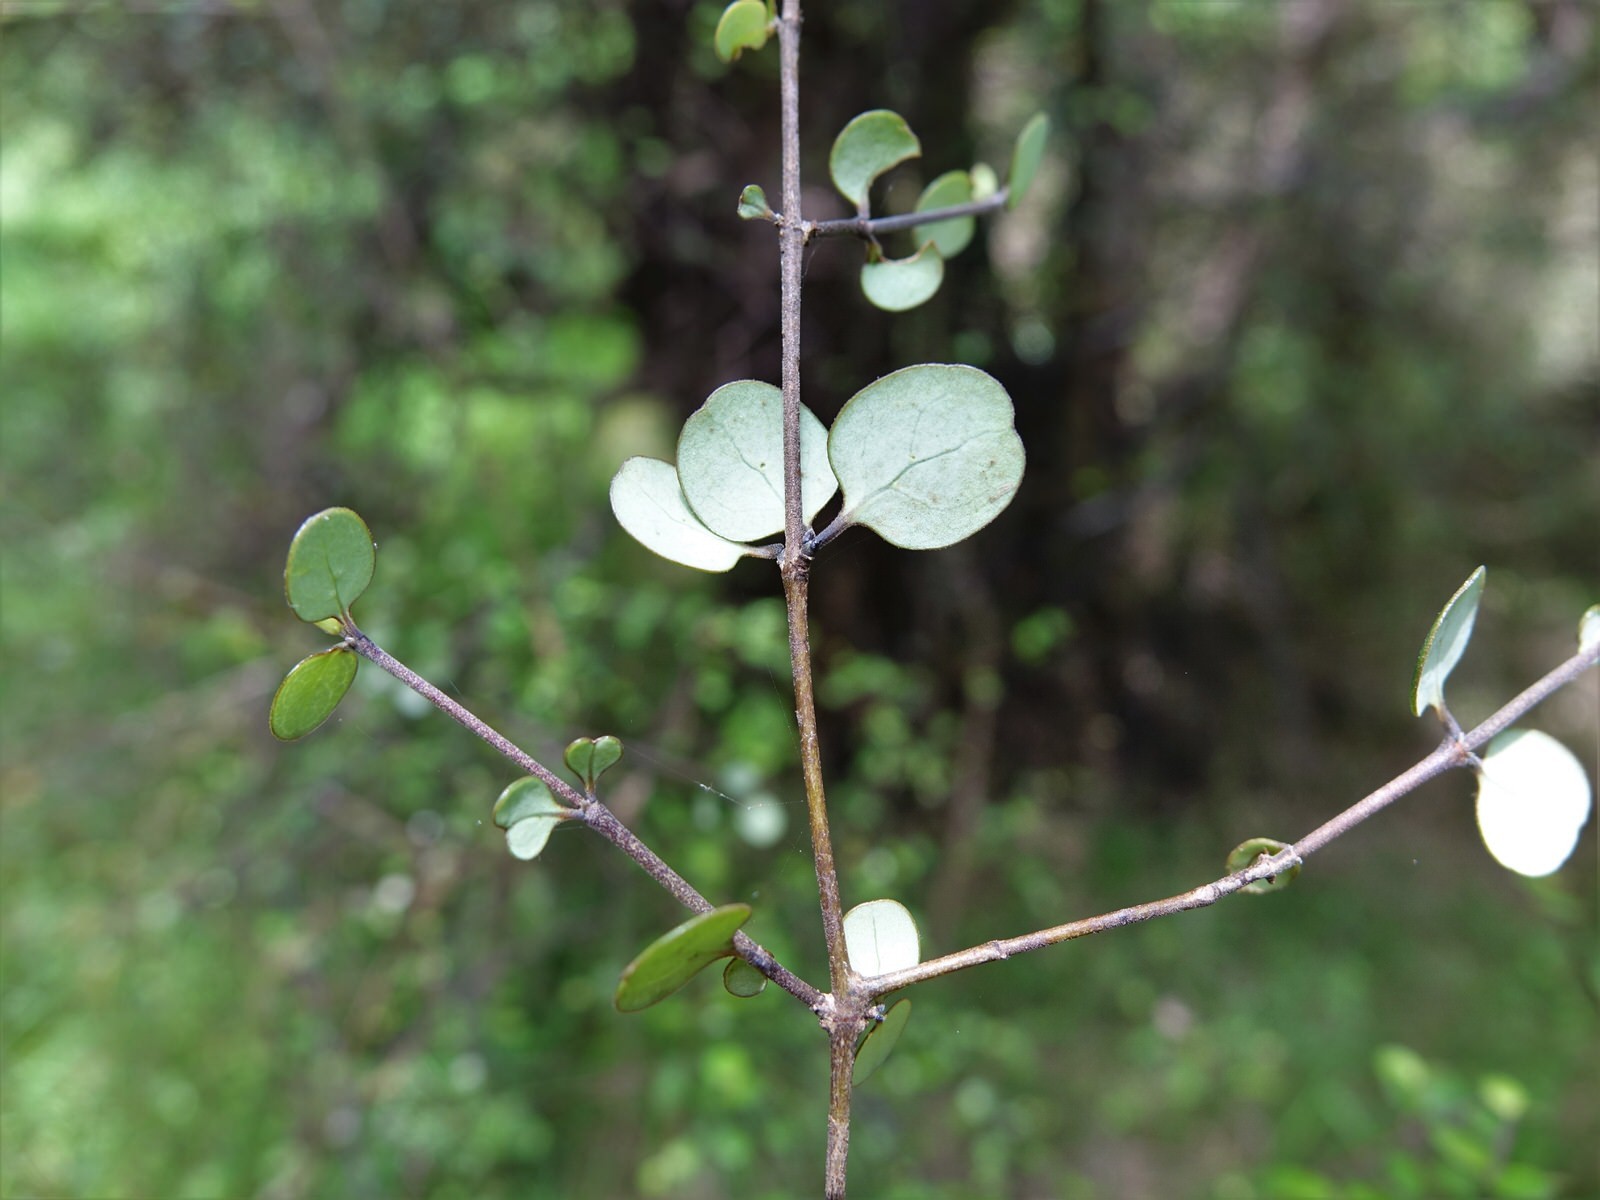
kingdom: Plantae
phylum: Tracheophyta
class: Magnoliopsida
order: Gentianales
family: Rubiaceae
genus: Coprosma
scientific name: Coprosma crassifolia
